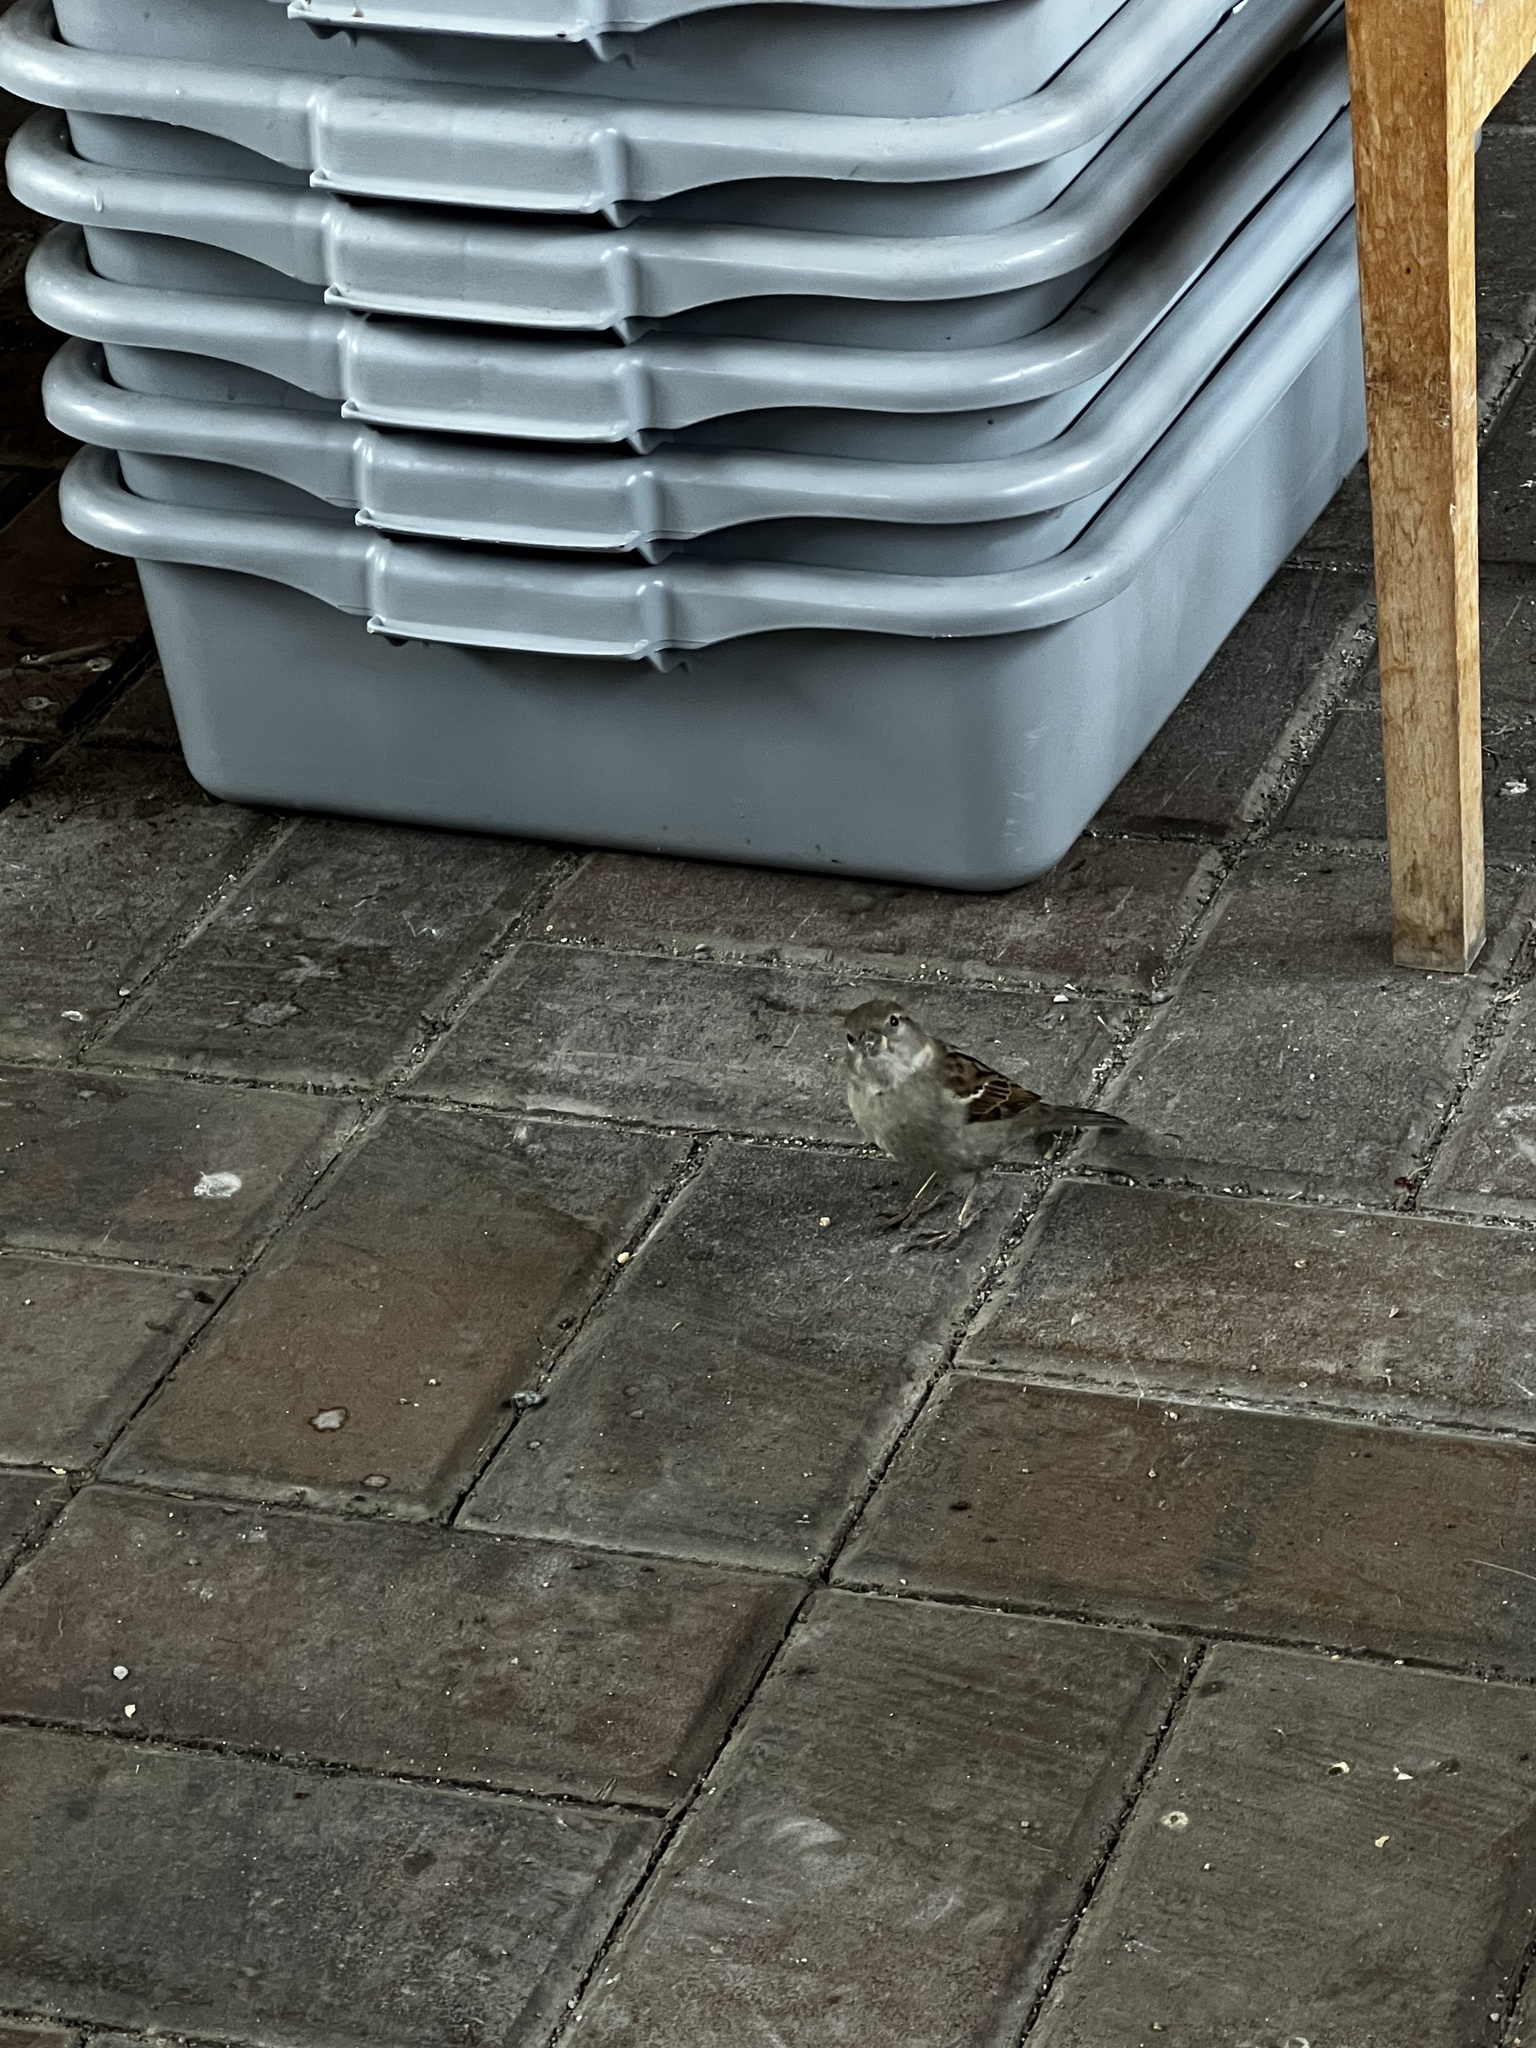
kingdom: Animalia
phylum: Chordata
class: Aves
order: Passeriformes
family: Passeridae
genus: Passer
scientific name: Passer domesticus
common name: House sparrow
